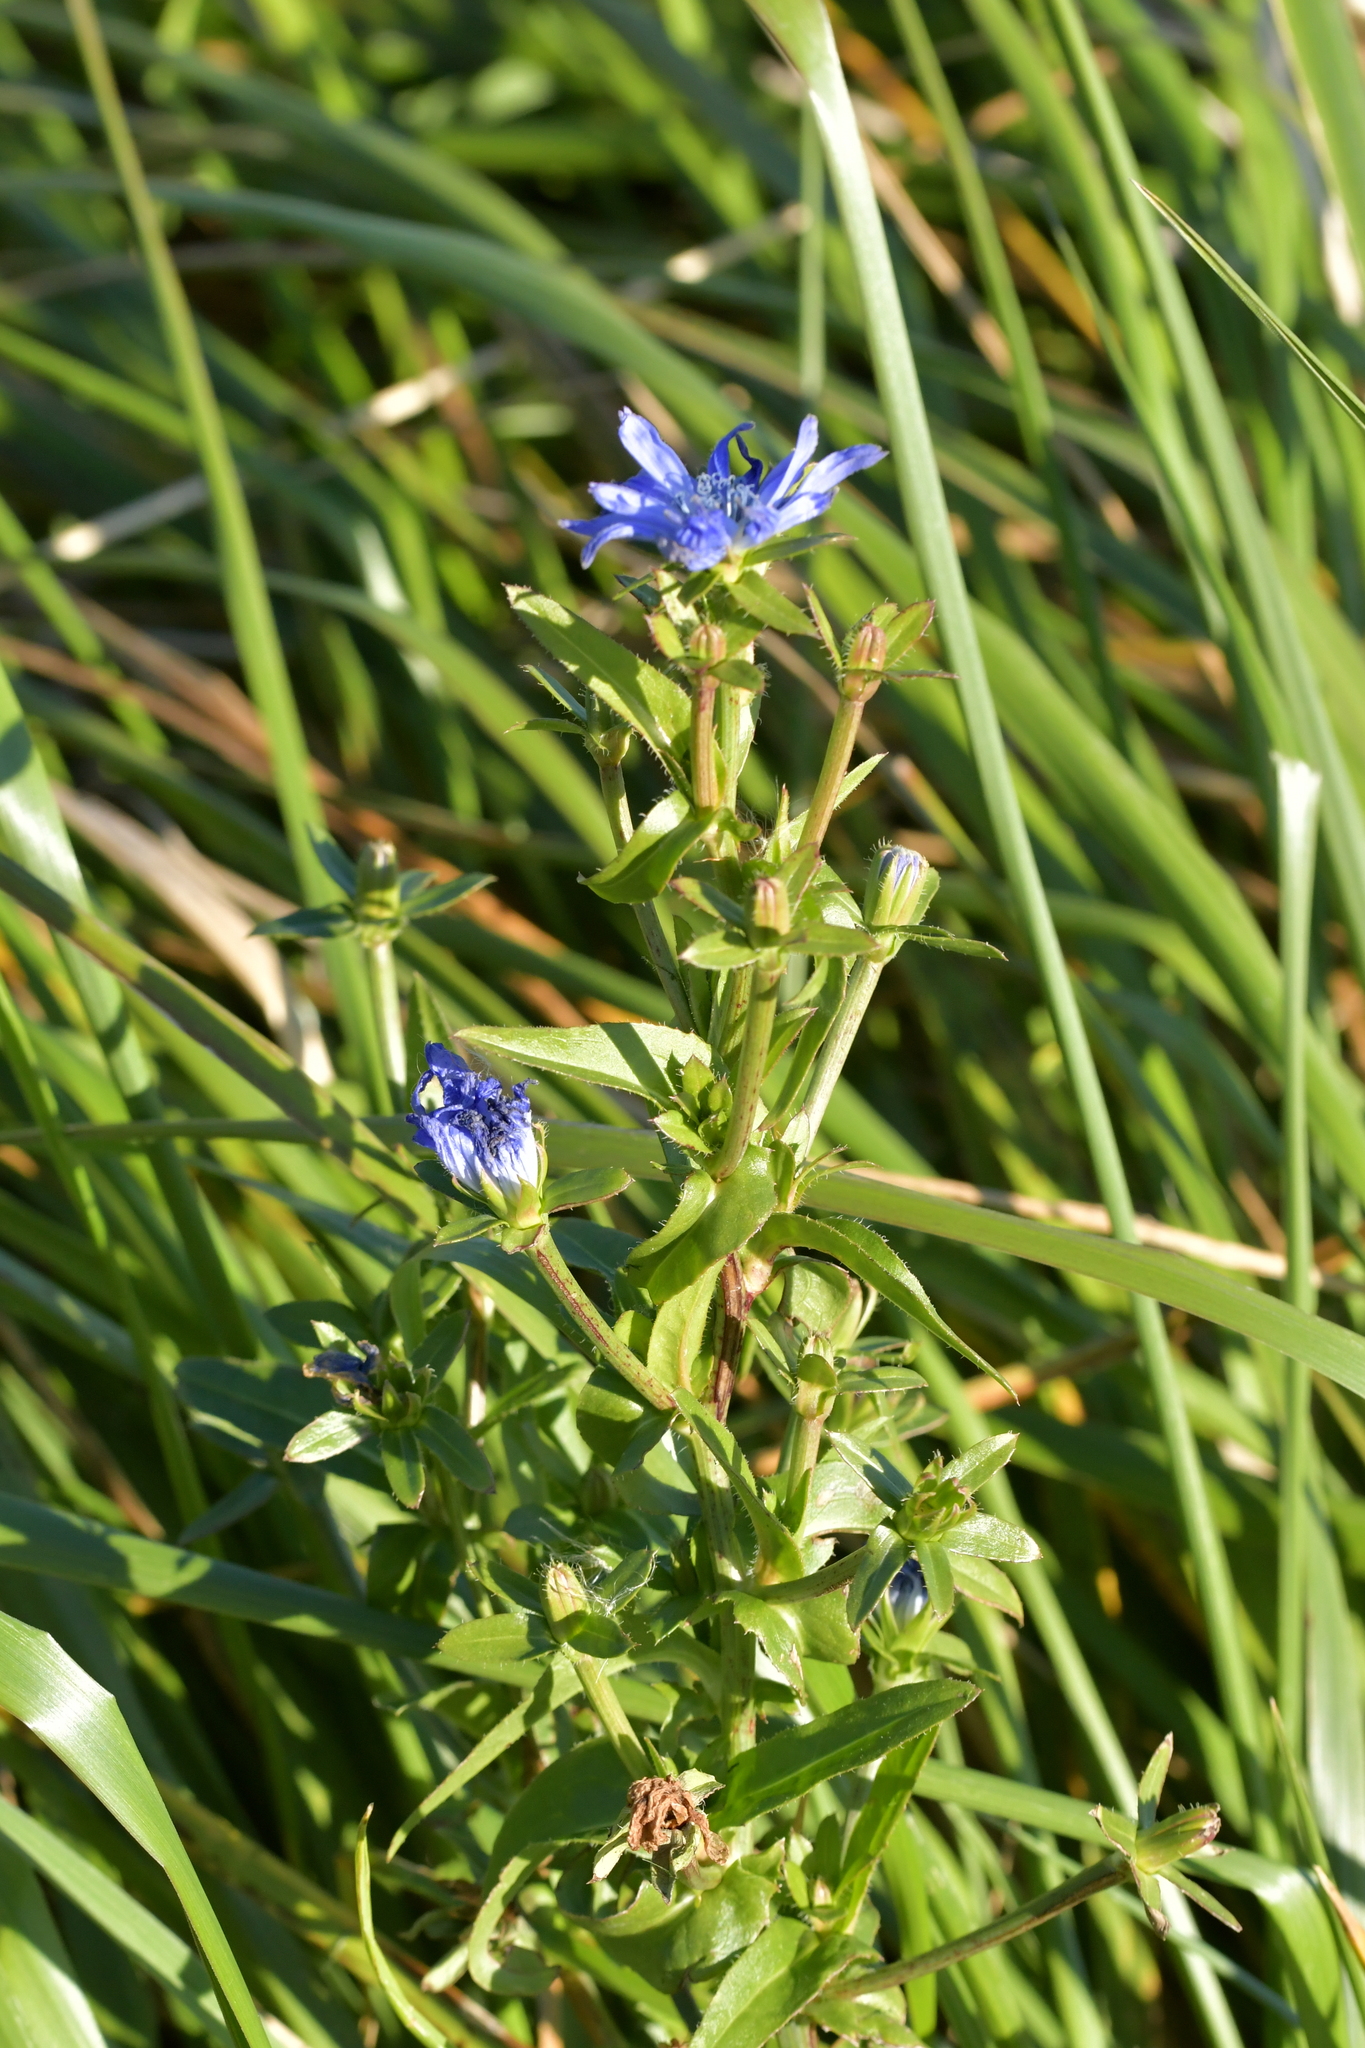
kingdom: Plantae
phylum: Tracheophyta
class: Magnoliopsida
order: Asterales
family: Asteraceae
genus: Cichorium
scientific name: Cichorium intybus
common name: Chicory
